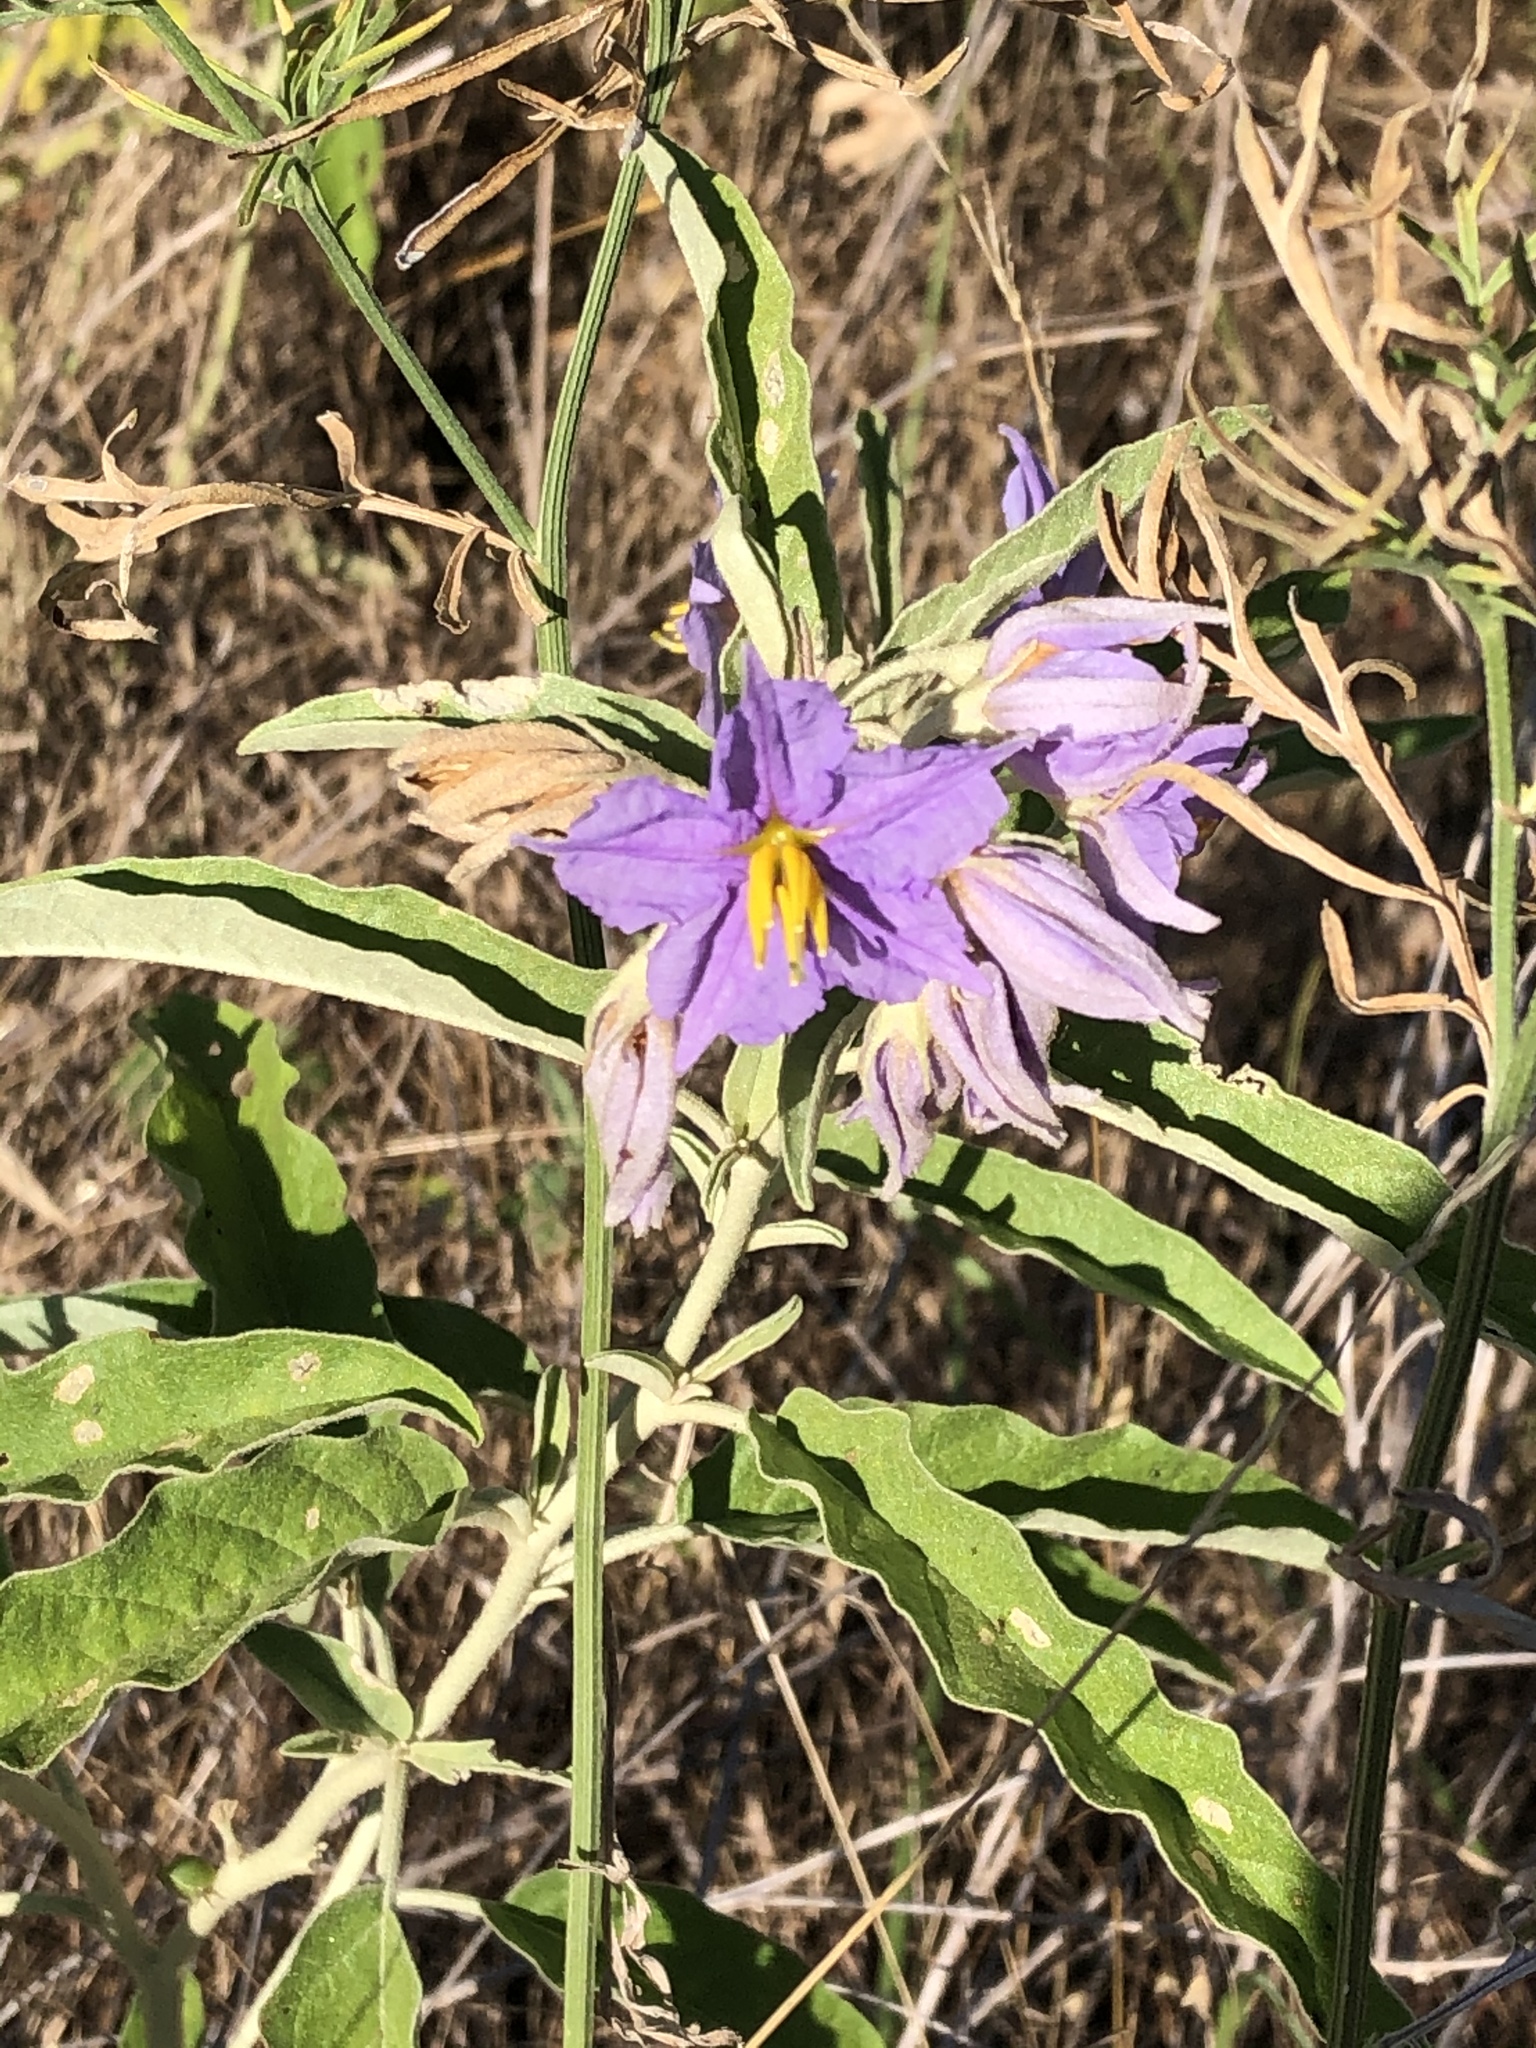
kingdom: Plantae
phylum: Tracheophyta
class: Magnoliopsida
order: Solanales
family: Solanaceae
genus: Solanum
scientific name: Solanum elaeagnifolium
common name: Silverleaf nightshade
